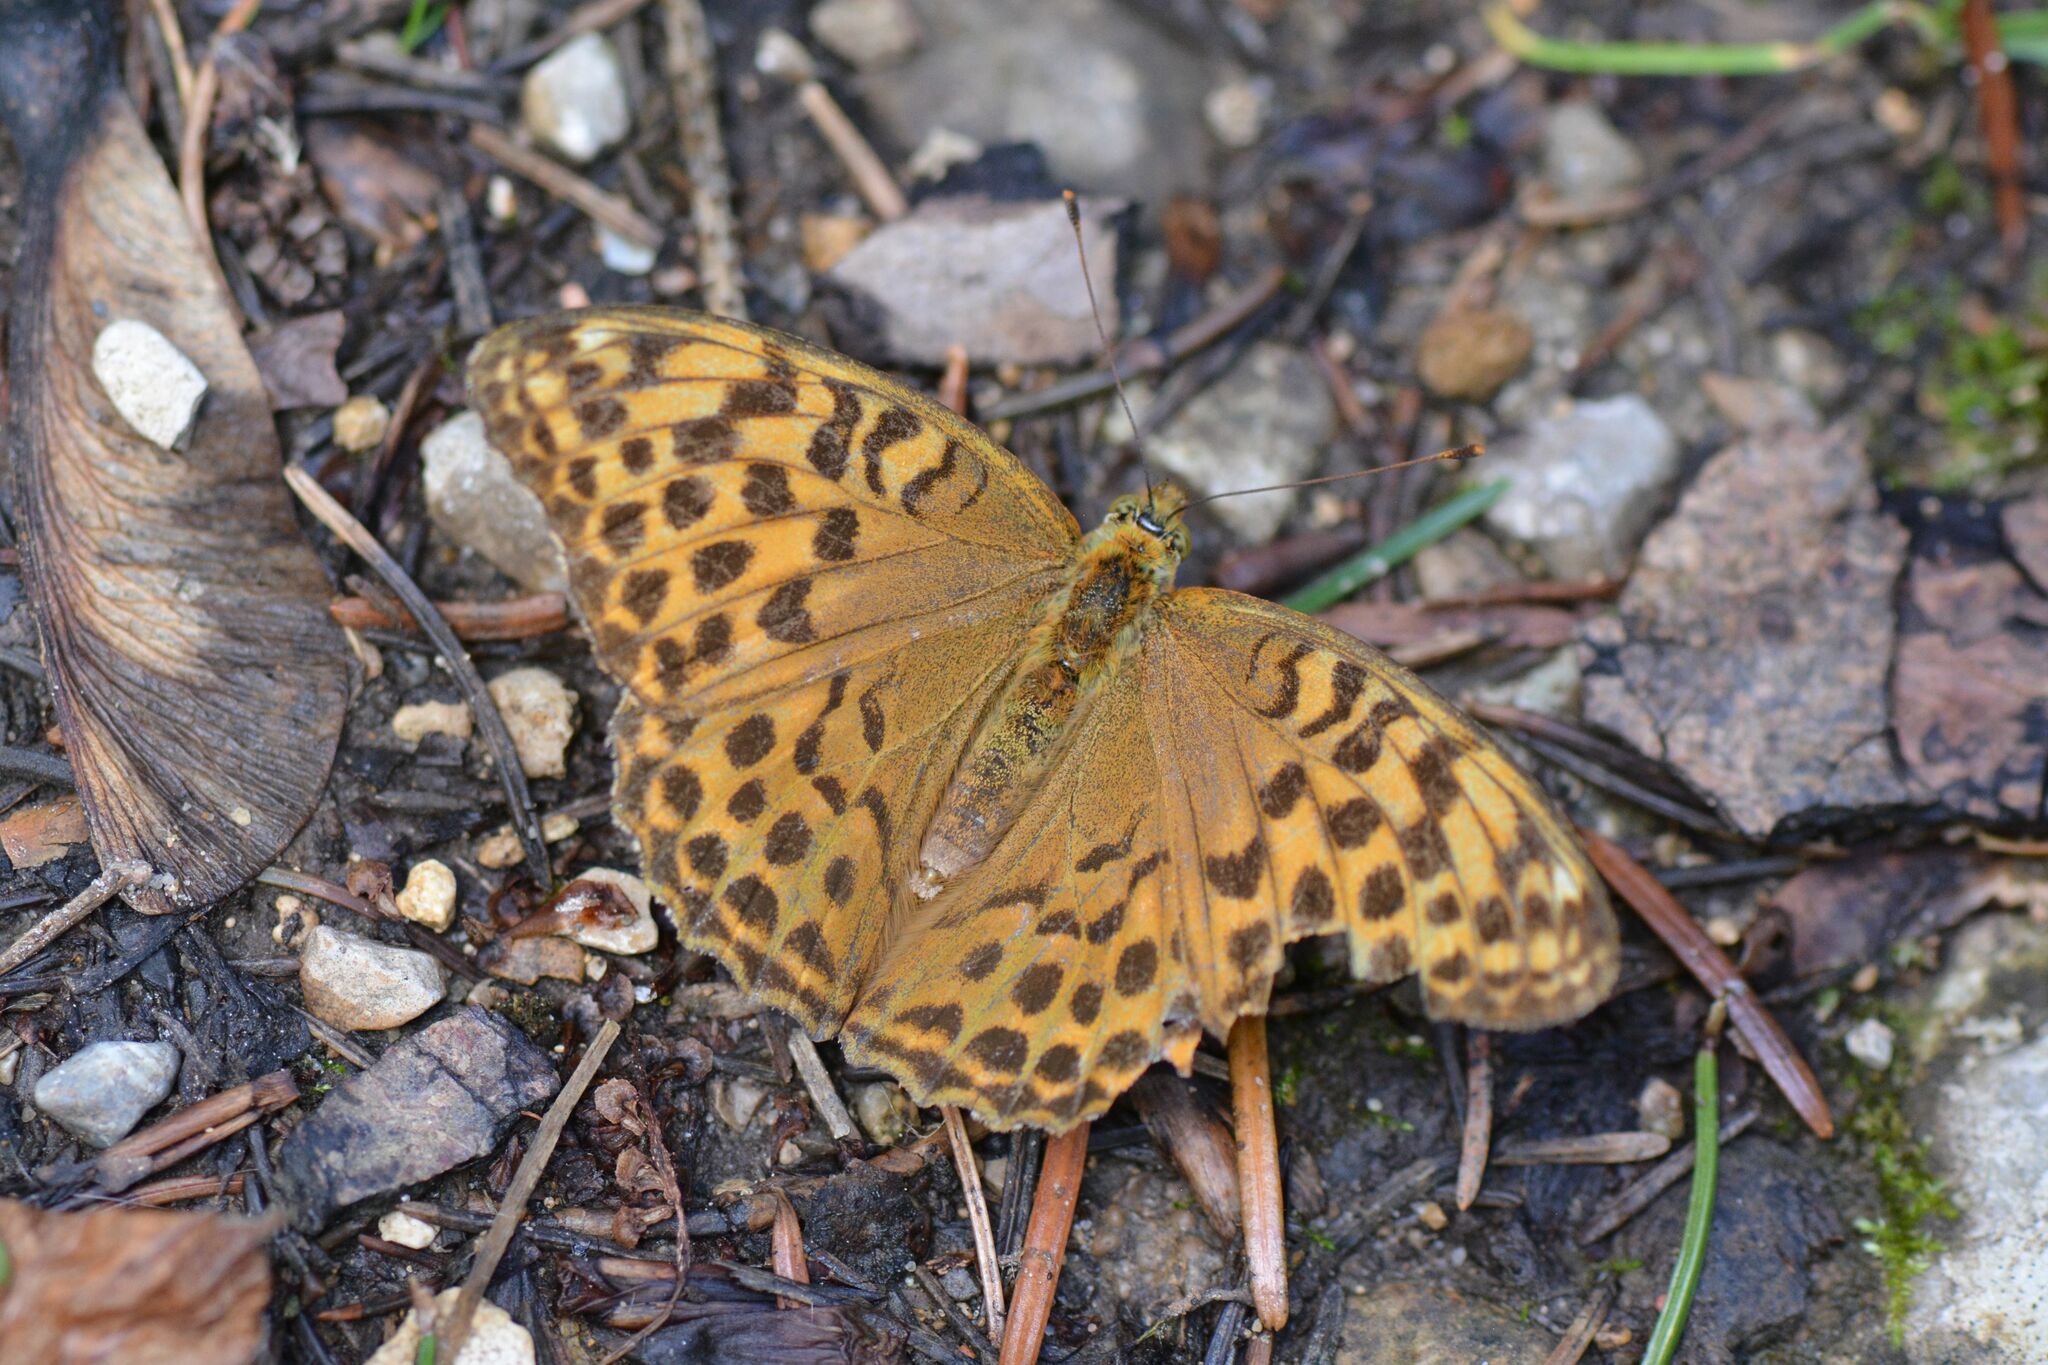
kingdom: Animalia
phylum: Arthropoda
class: Insecta
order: Lepidoptera
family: Nymphalidae
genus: Argynnis
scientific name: Argynnis paphia
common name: Silver-washed fritillary
